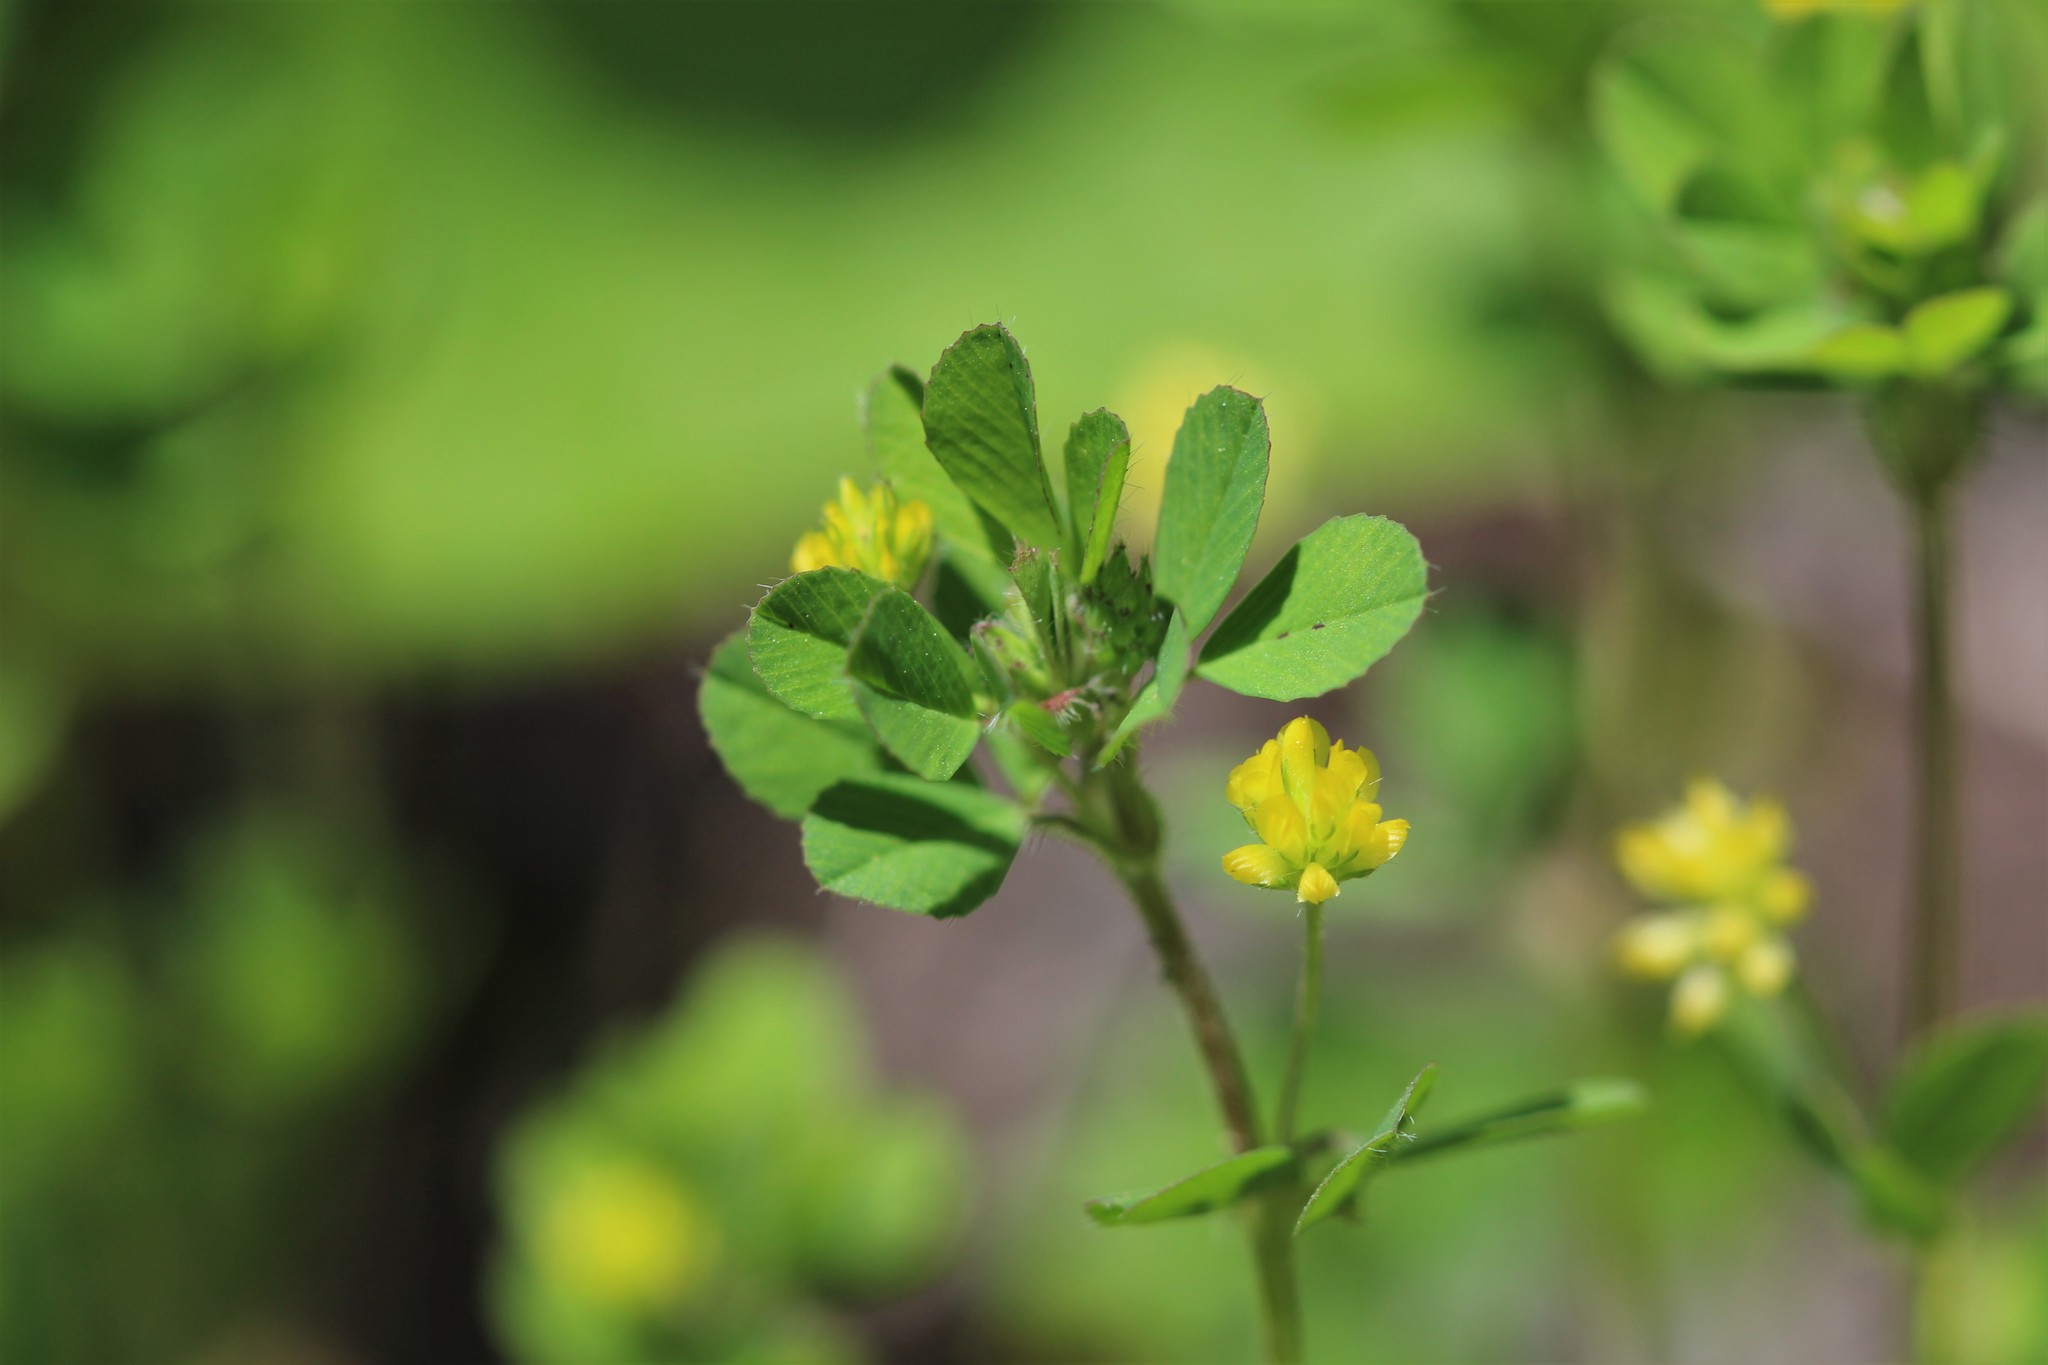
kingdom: Plantae
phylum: Tracheophyta
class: Magnoliopsida
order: Fabales
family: Fabaceae
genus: Trifolium
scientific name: Trifolium dubium
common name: Suckling clover
